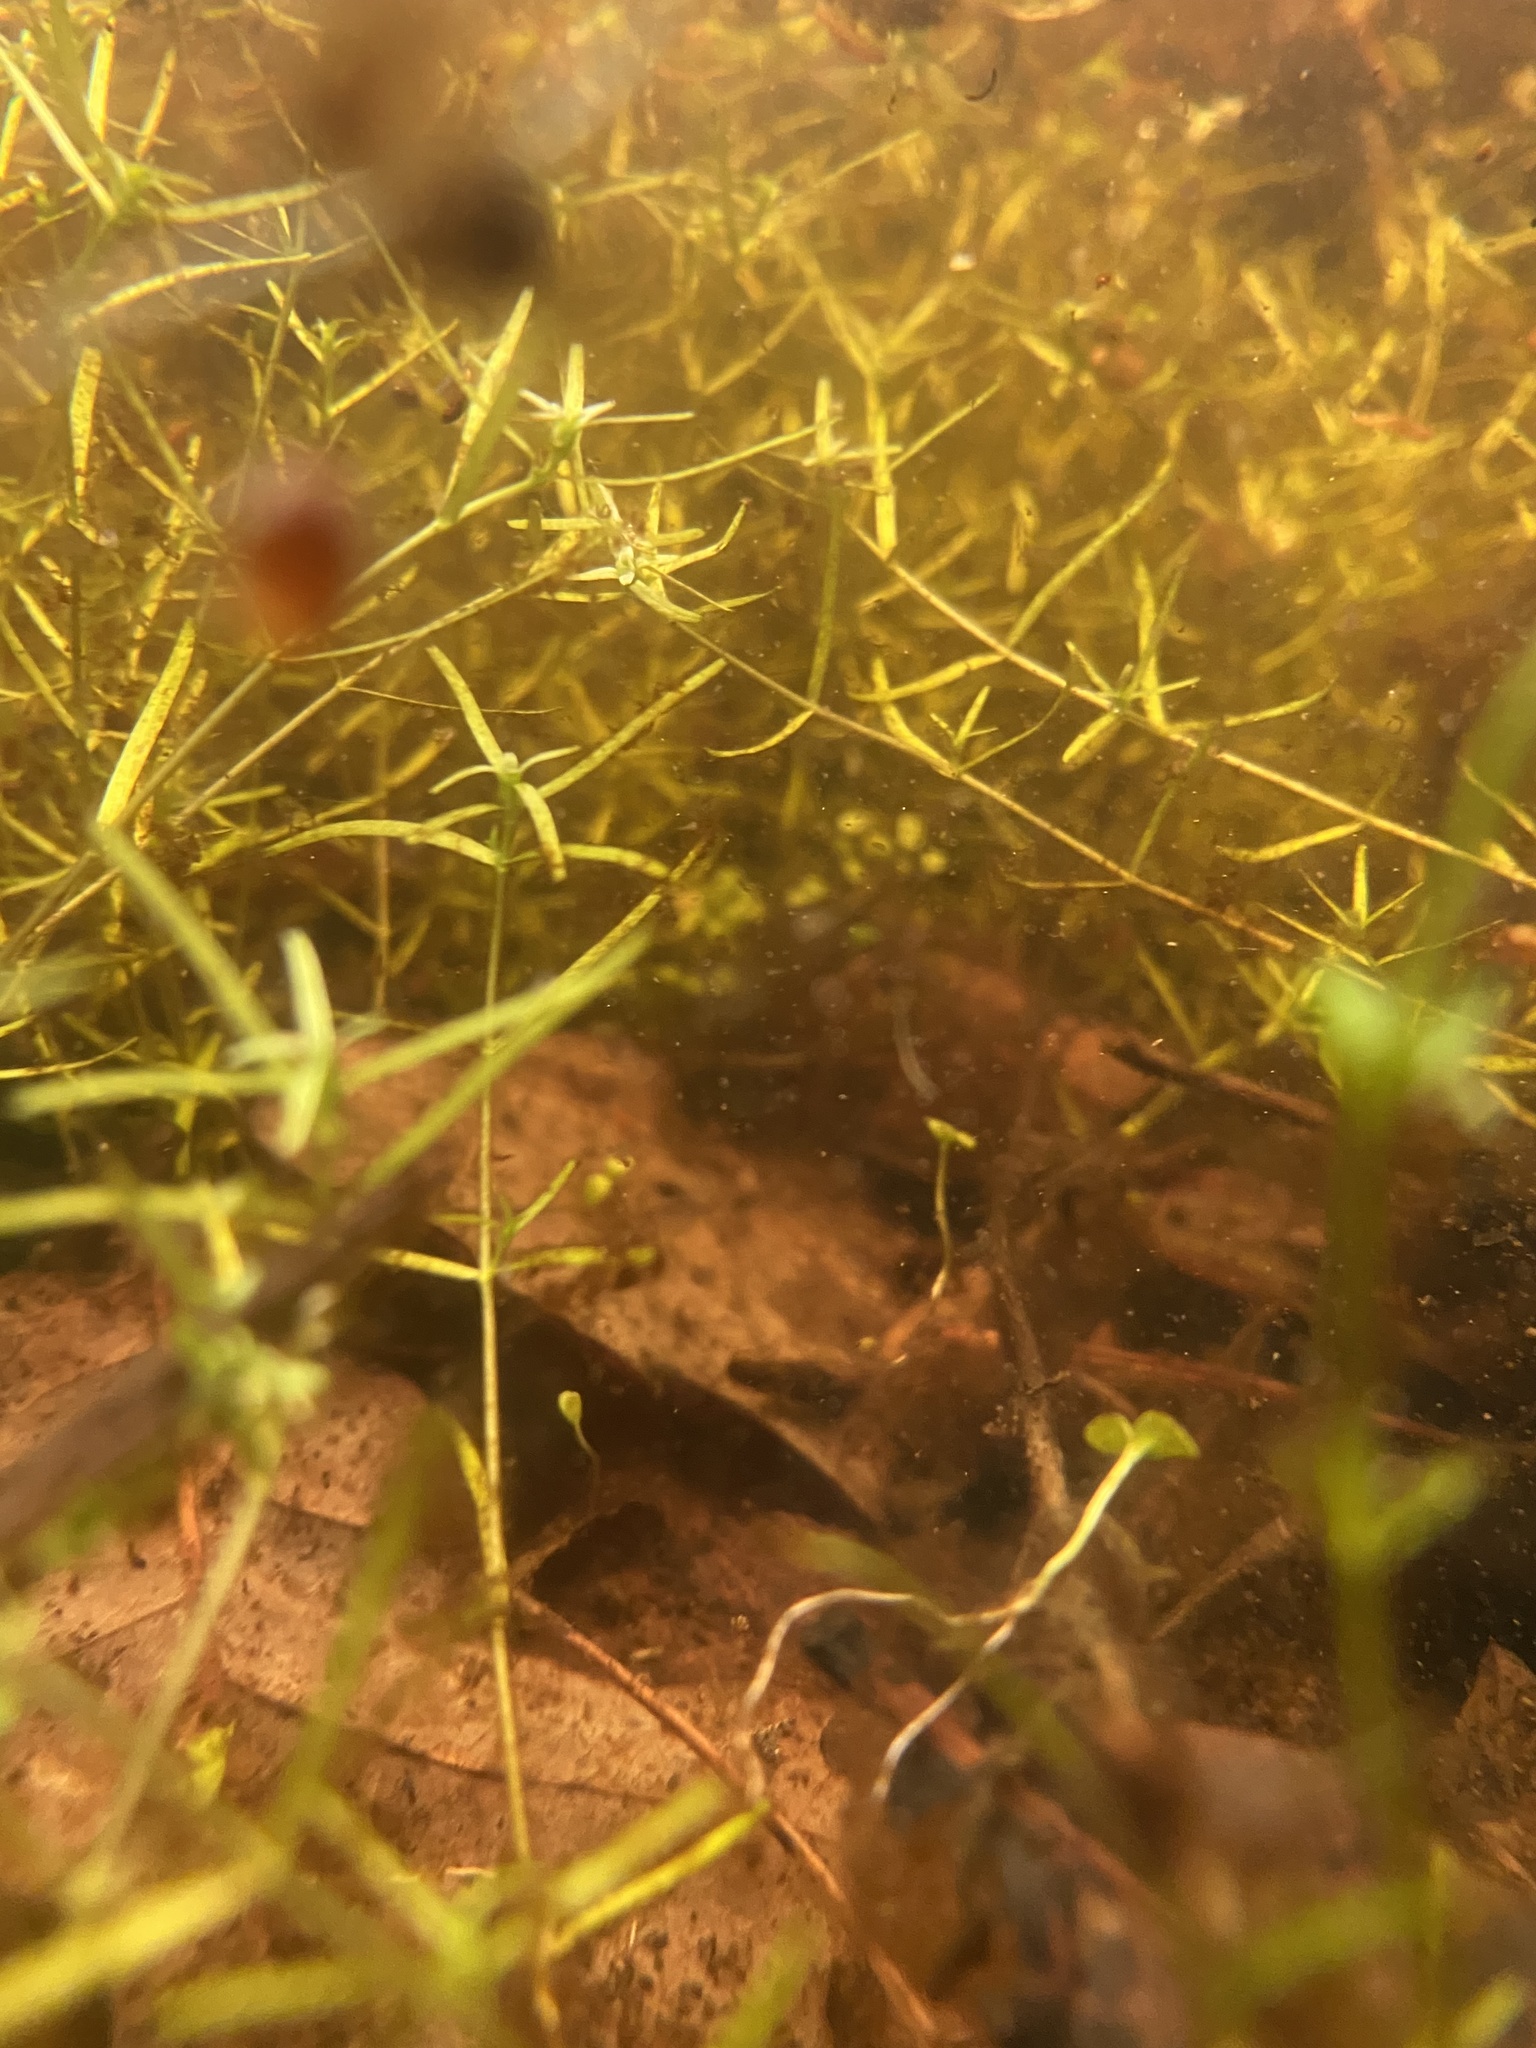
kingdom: Plantae
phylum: Tracheophyta
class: Magnoliopsida
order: Lamiales
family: Plantaginaceae
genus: Callitriche
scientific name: Callitriche
